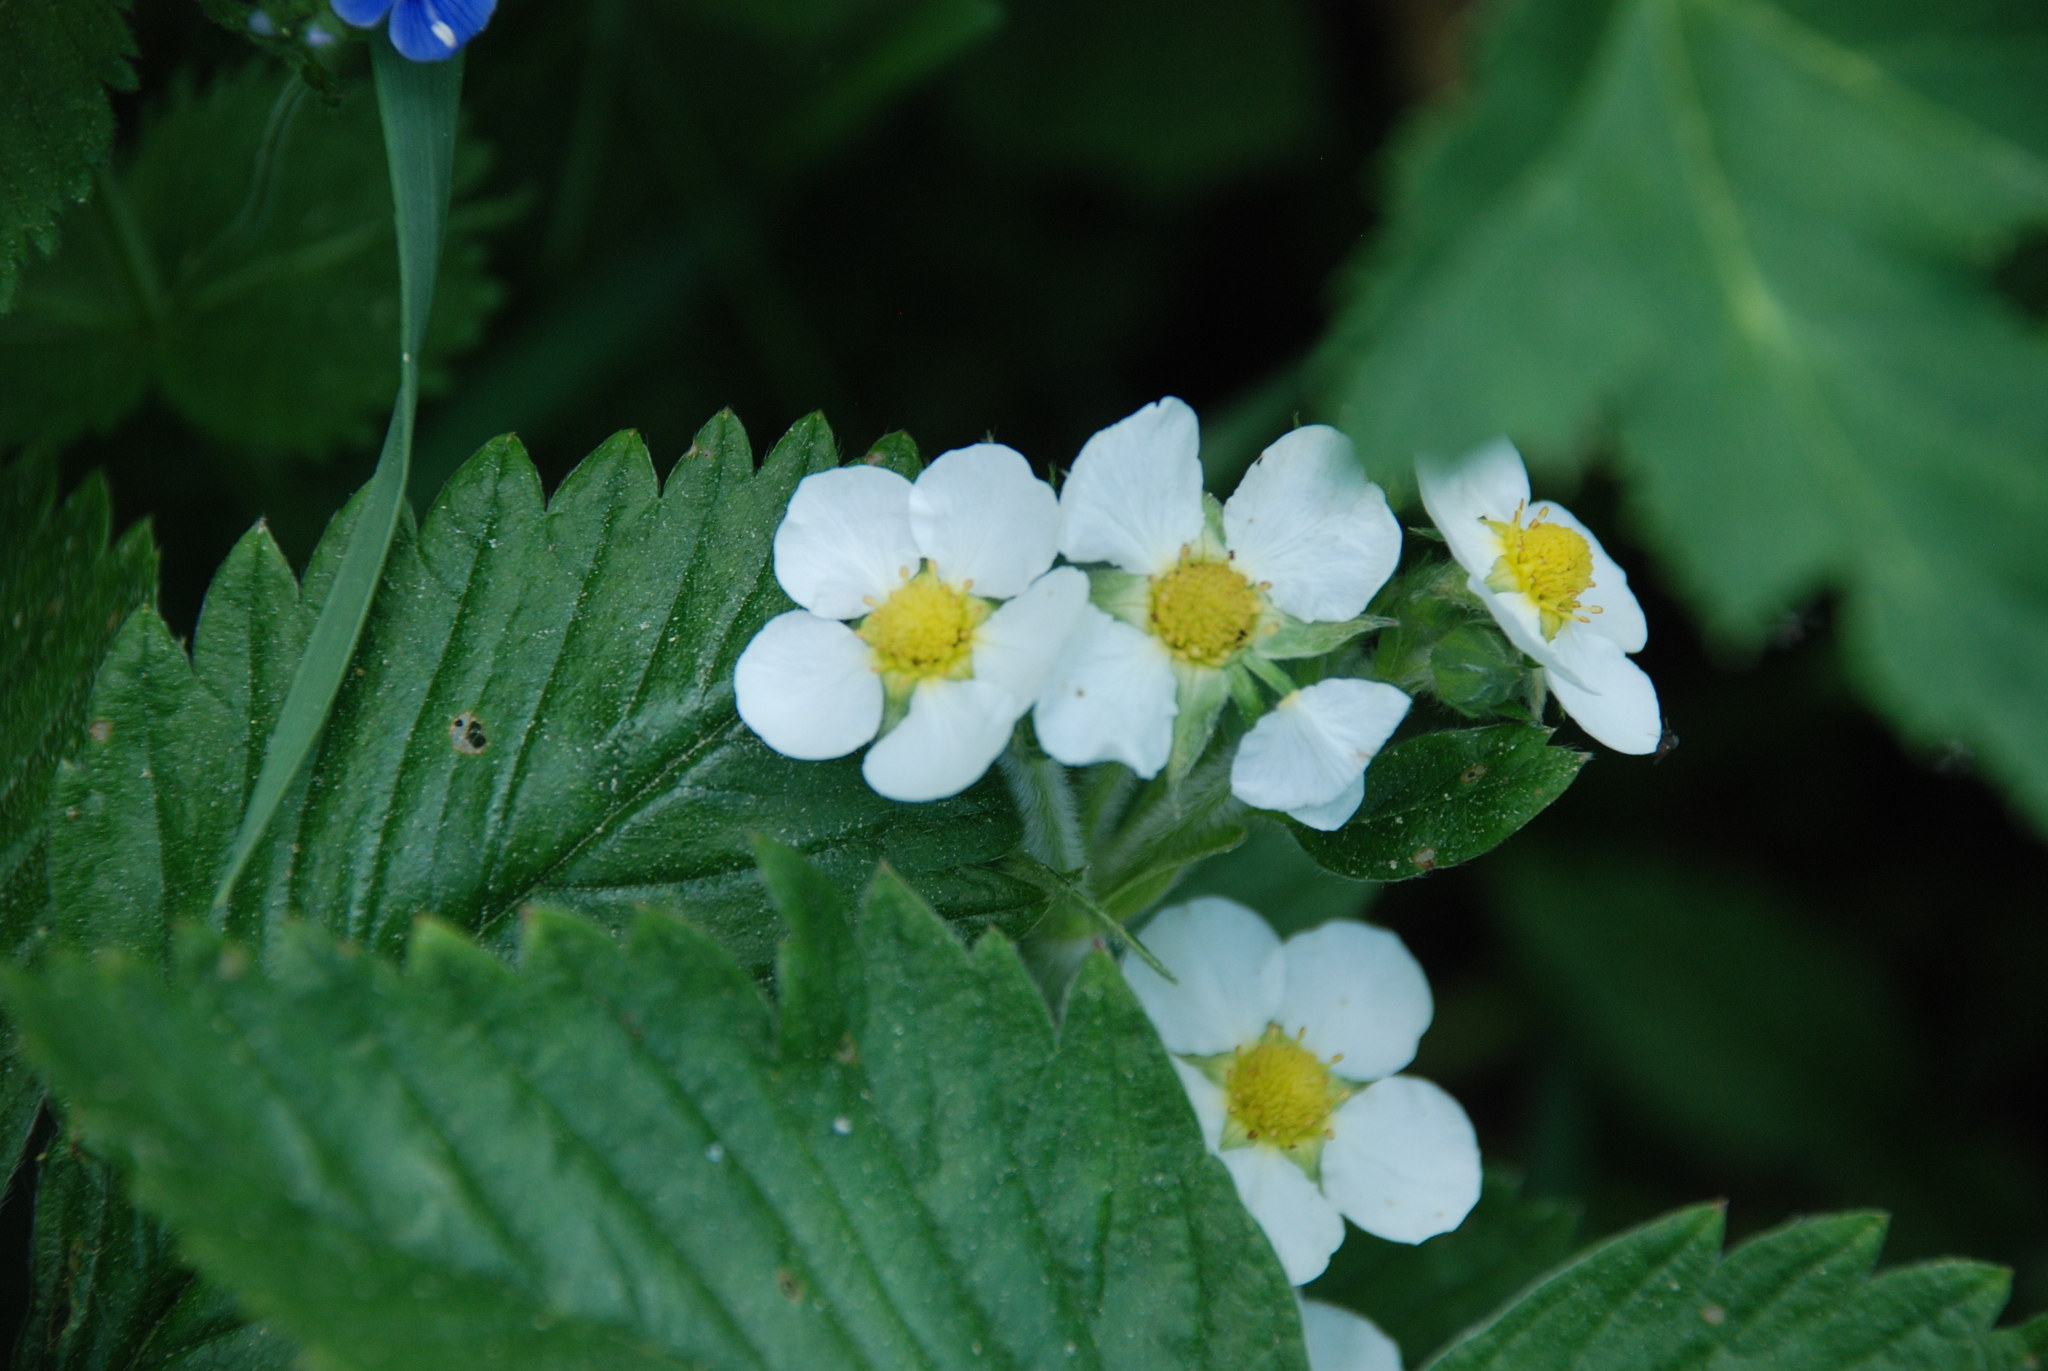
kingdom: Plantae
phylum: Tracheophyta
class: Magnoliopsida
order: Rosales
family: Rosaceae
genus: Fragaria
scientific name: Fragaria moschata
